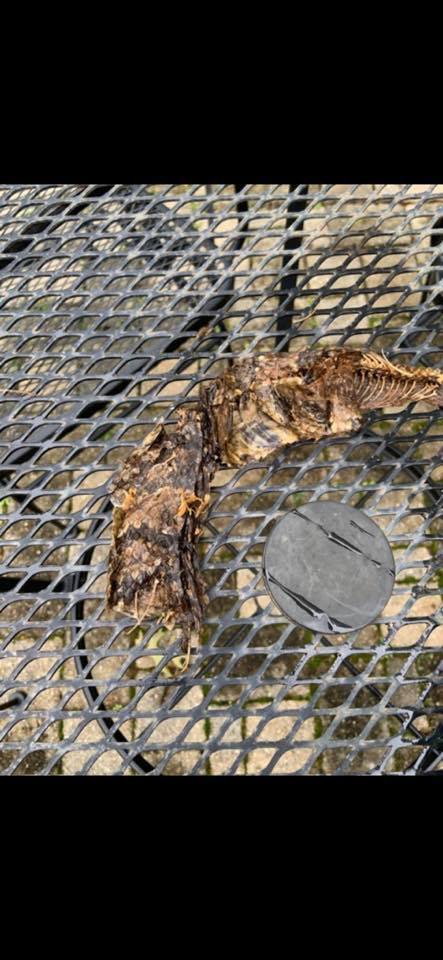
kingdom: Animalia
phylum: Chordata
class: Squamata
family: Viperidae
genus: Agkistrodon
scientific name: Agkistrodon piscivorus
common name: Cottonmouth
